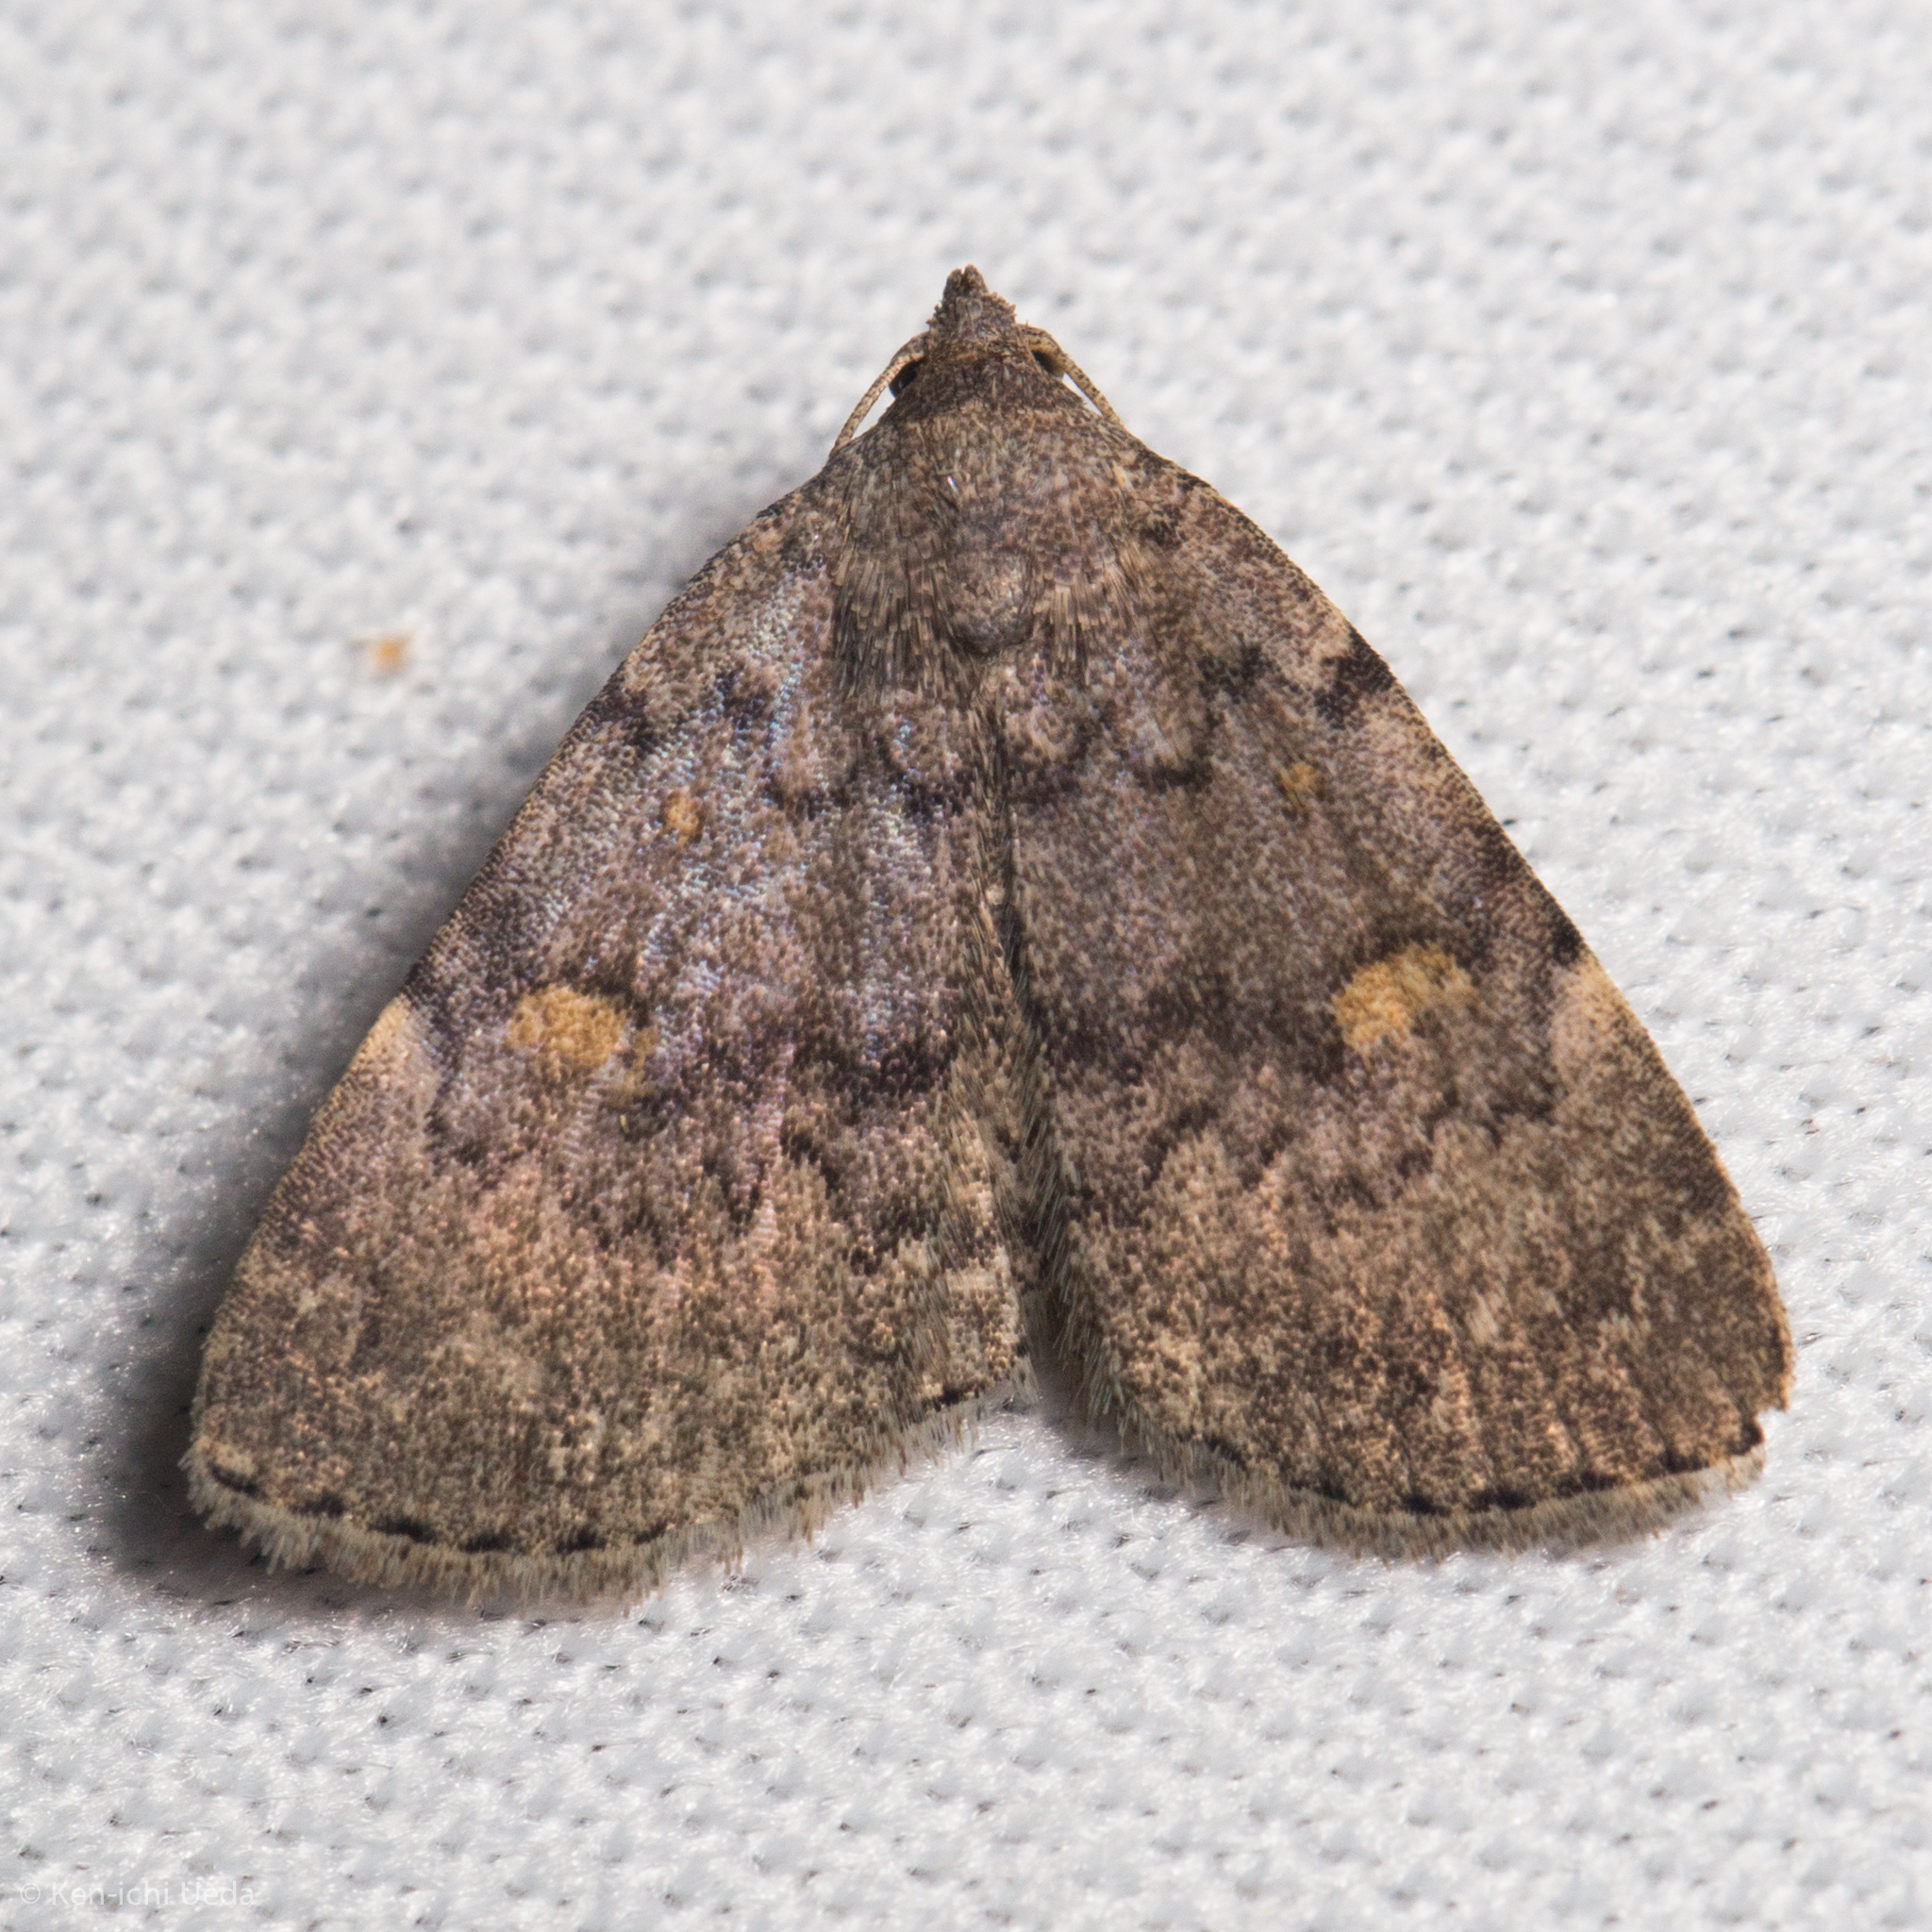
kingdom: Animalia
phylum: Arthropoda
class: Insecta
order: Lepidoptera
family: Erebidae
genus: Idia
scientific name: Idia aemula
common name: Common idia moth
